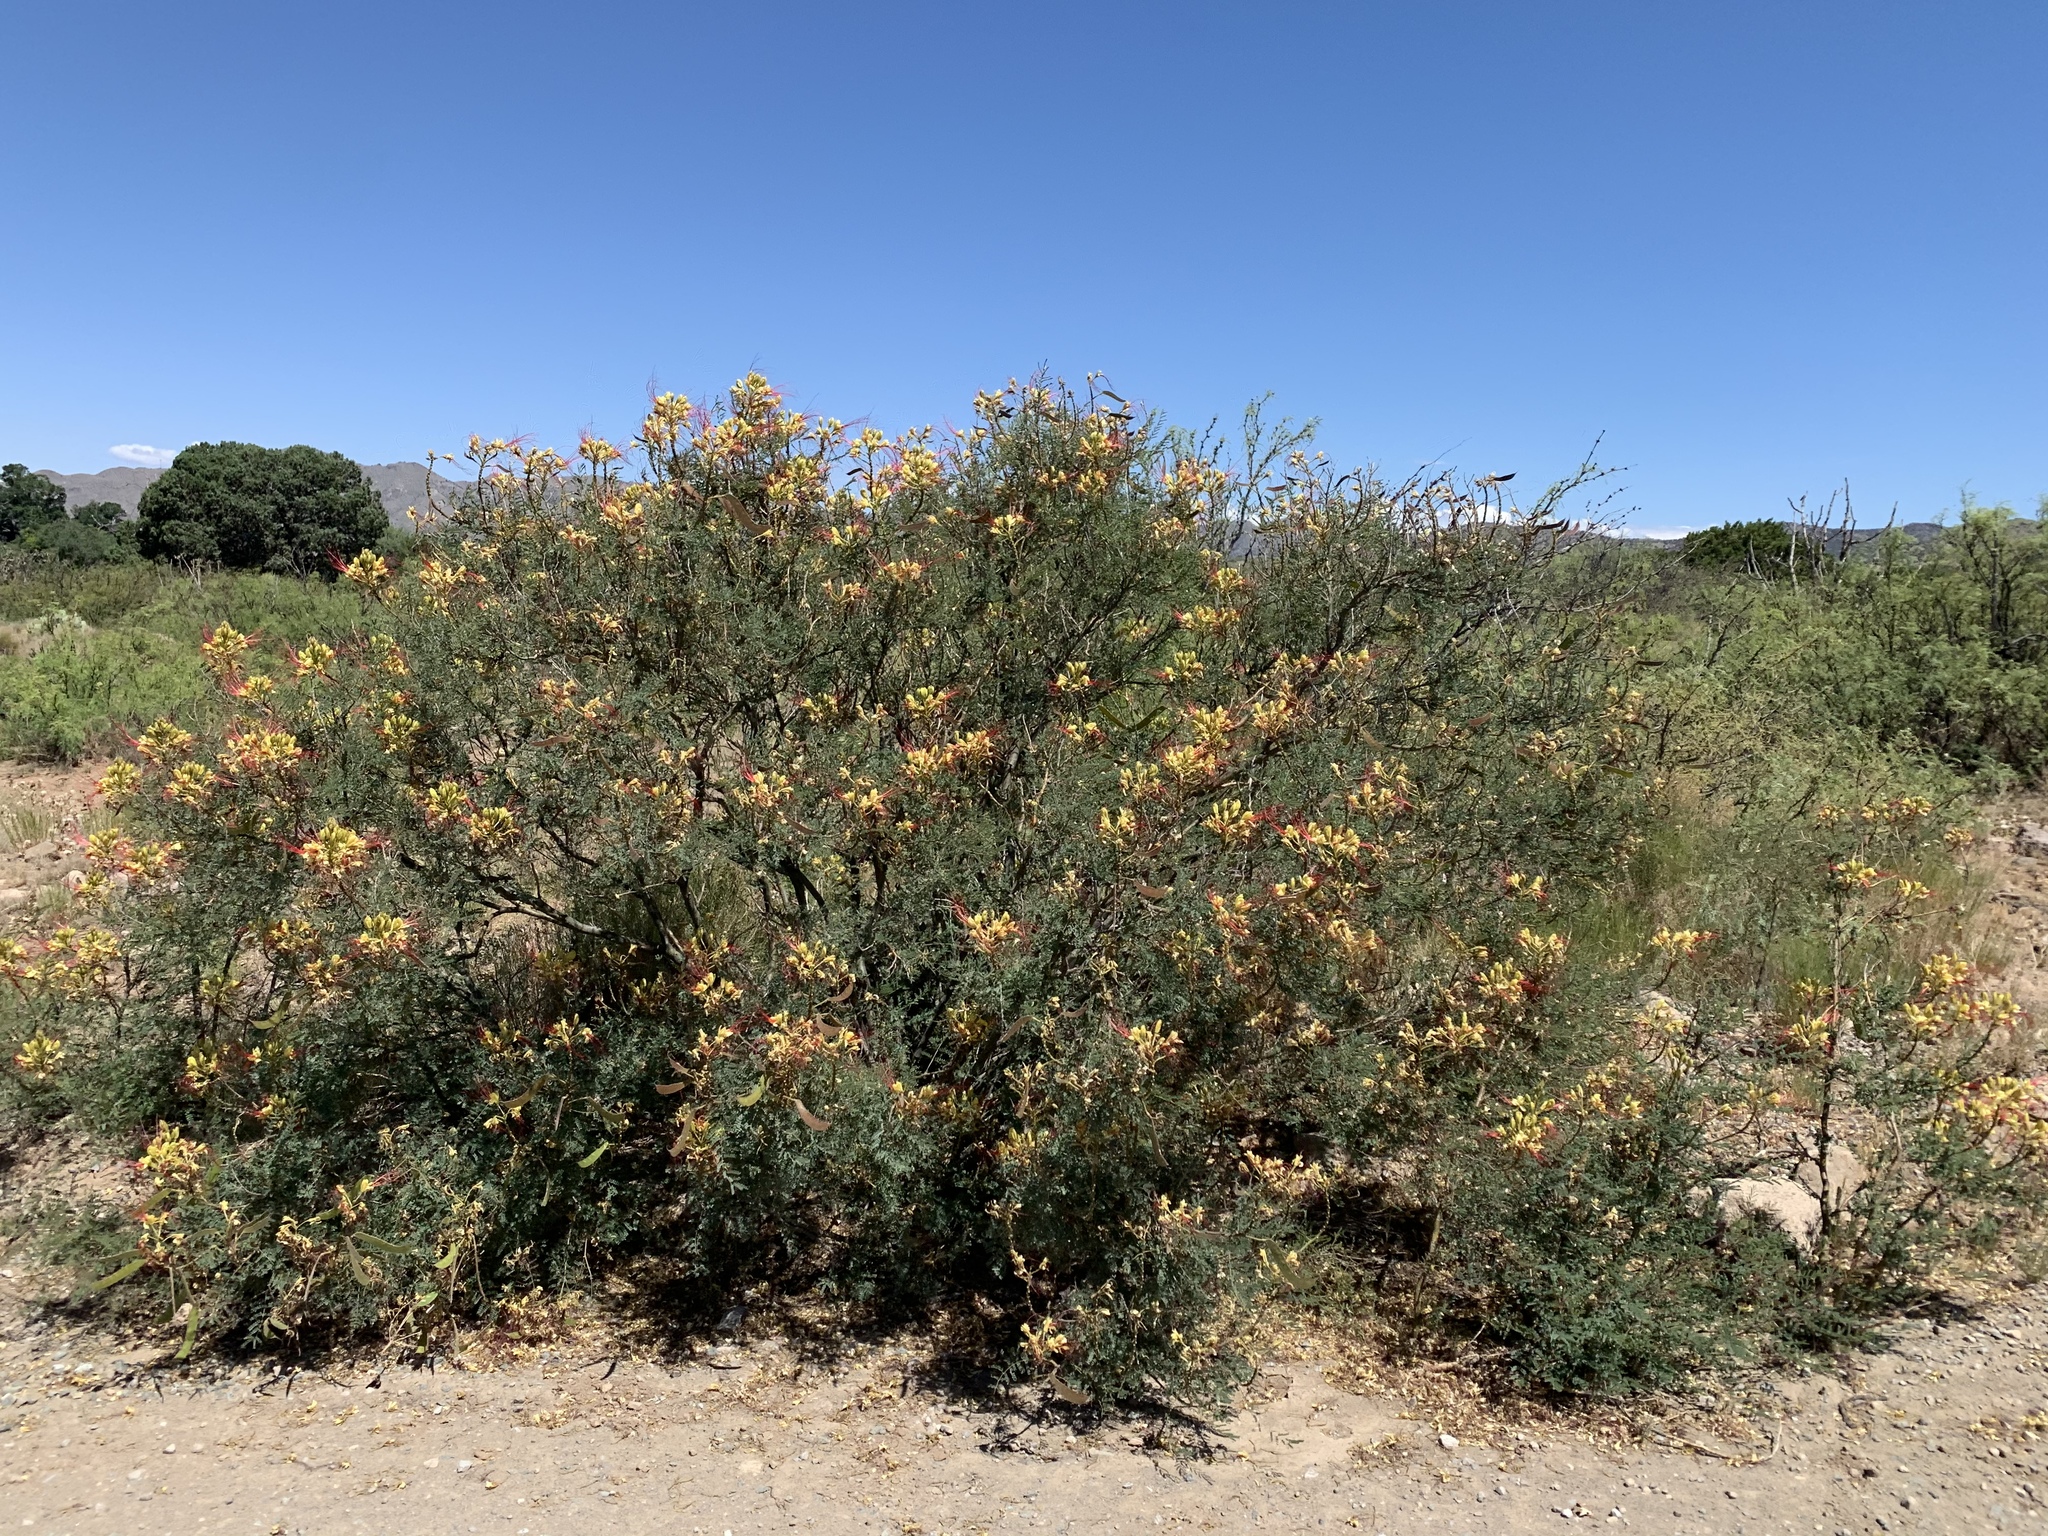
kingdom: Plantae
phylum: Tracheophyta
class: Magnoliopsida
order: Fabales
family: Fabaceae
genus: Erythrostemon
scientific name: Erythrostemon gilliesii
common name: Bird-of-paradise shrub
